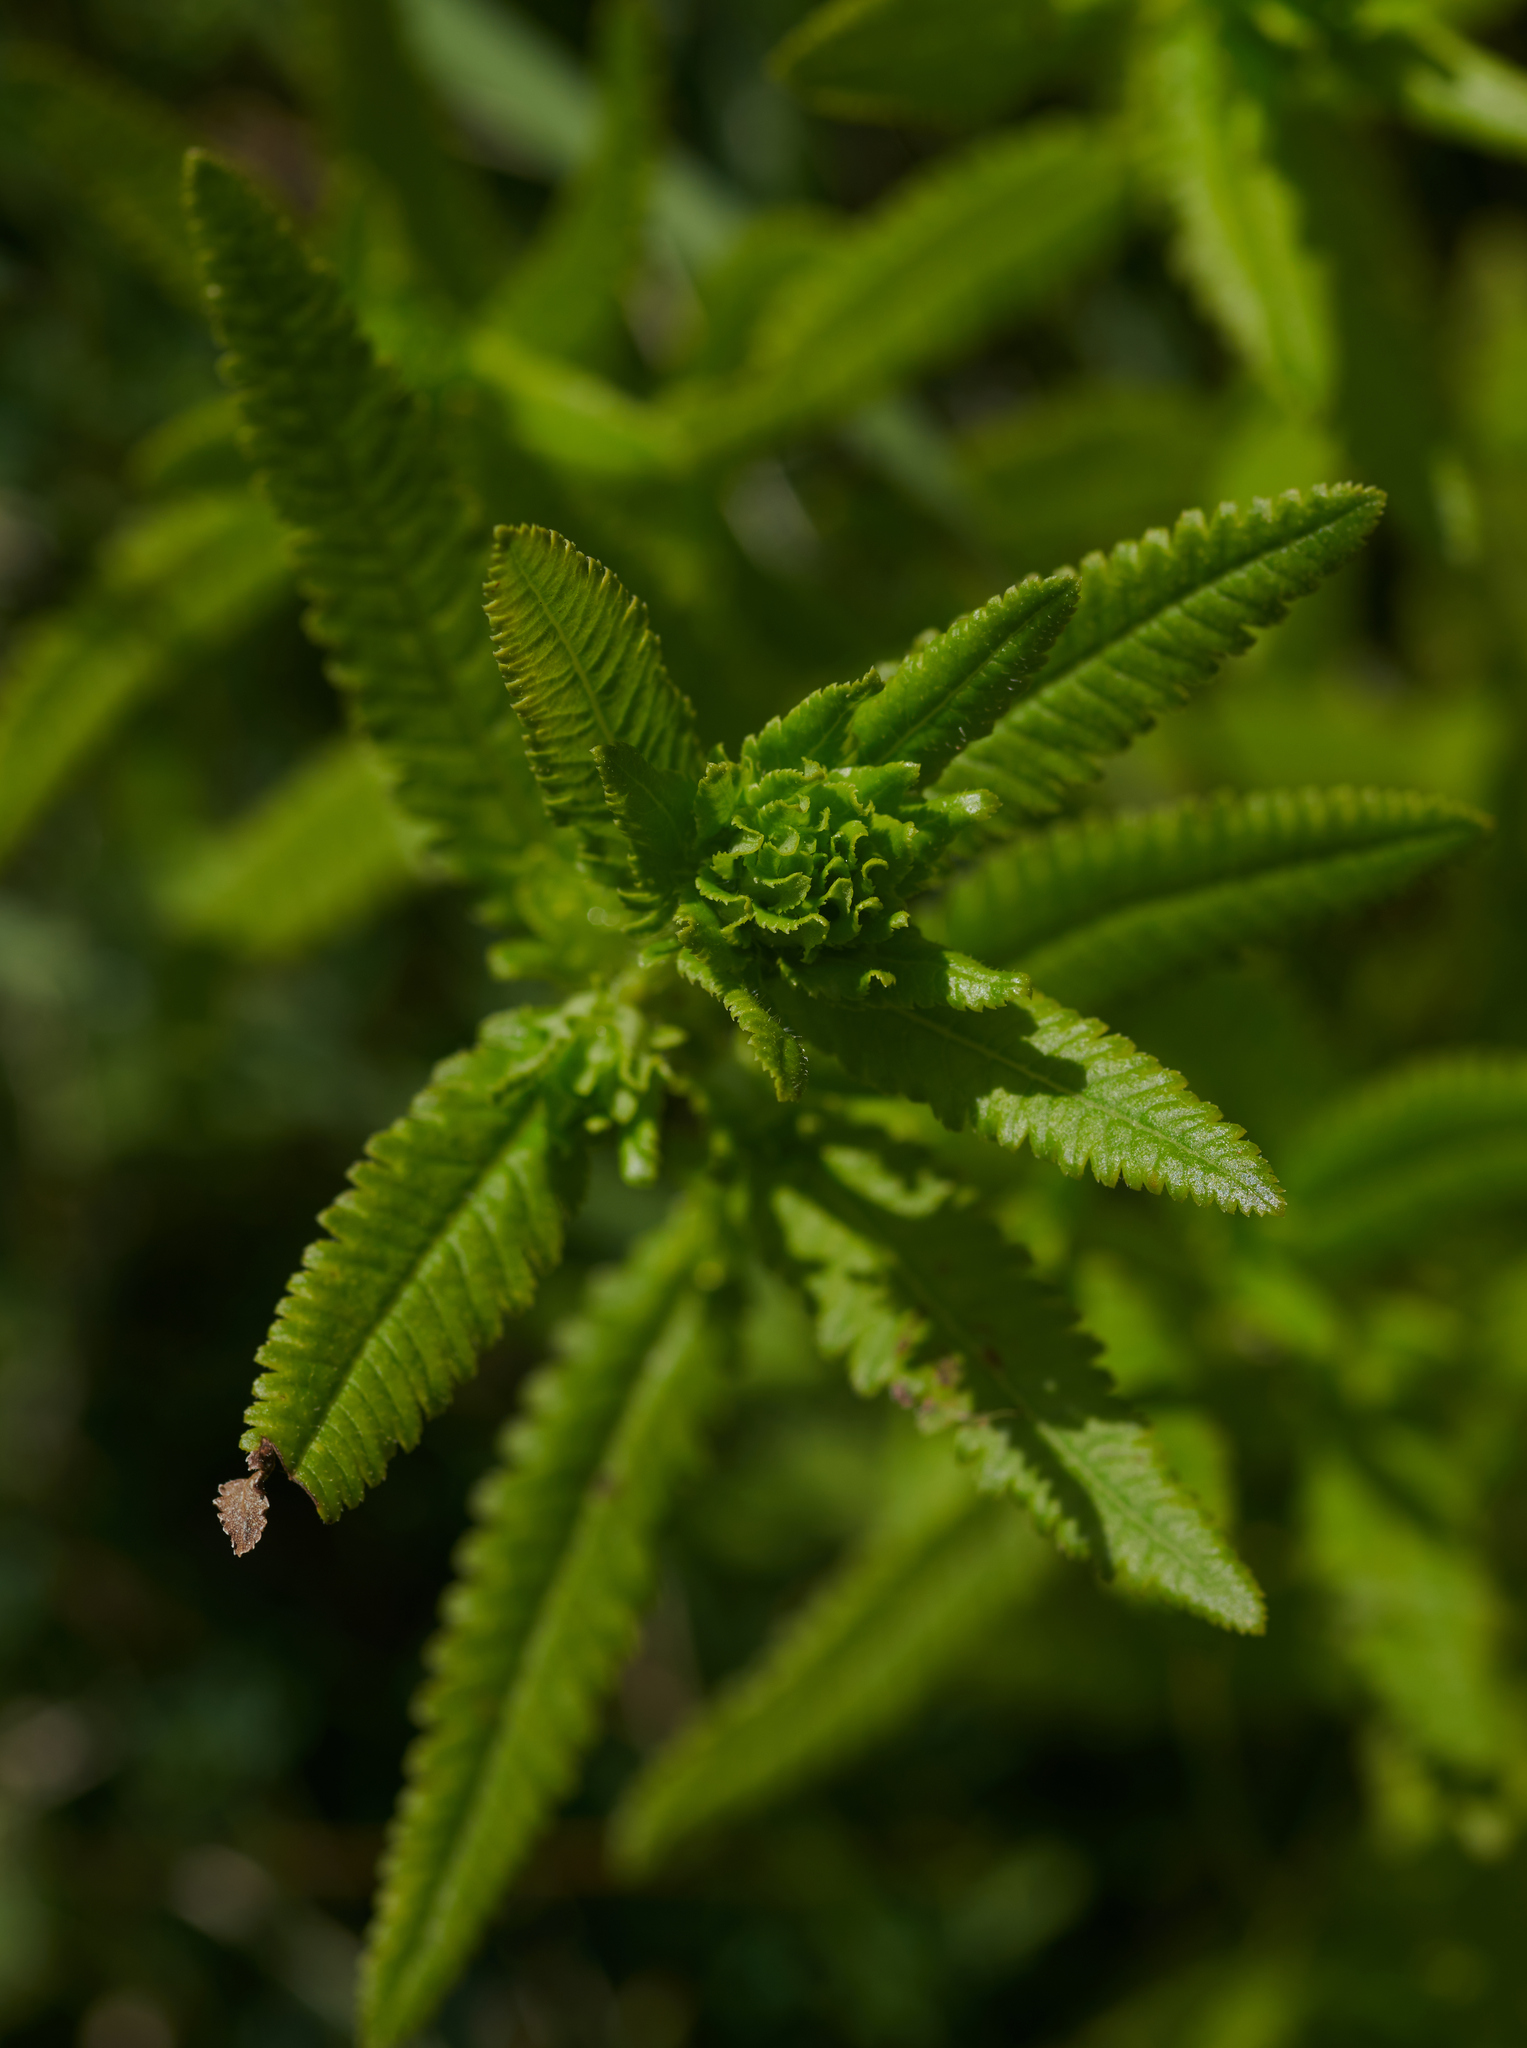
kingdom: Plantae
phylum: Tracheophyta
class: Magnoliopsida
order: Lamiales
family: Orobanchaceae
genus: Pedicularis
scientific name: Pedicularis lanceolata
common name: Swamp lousewort
